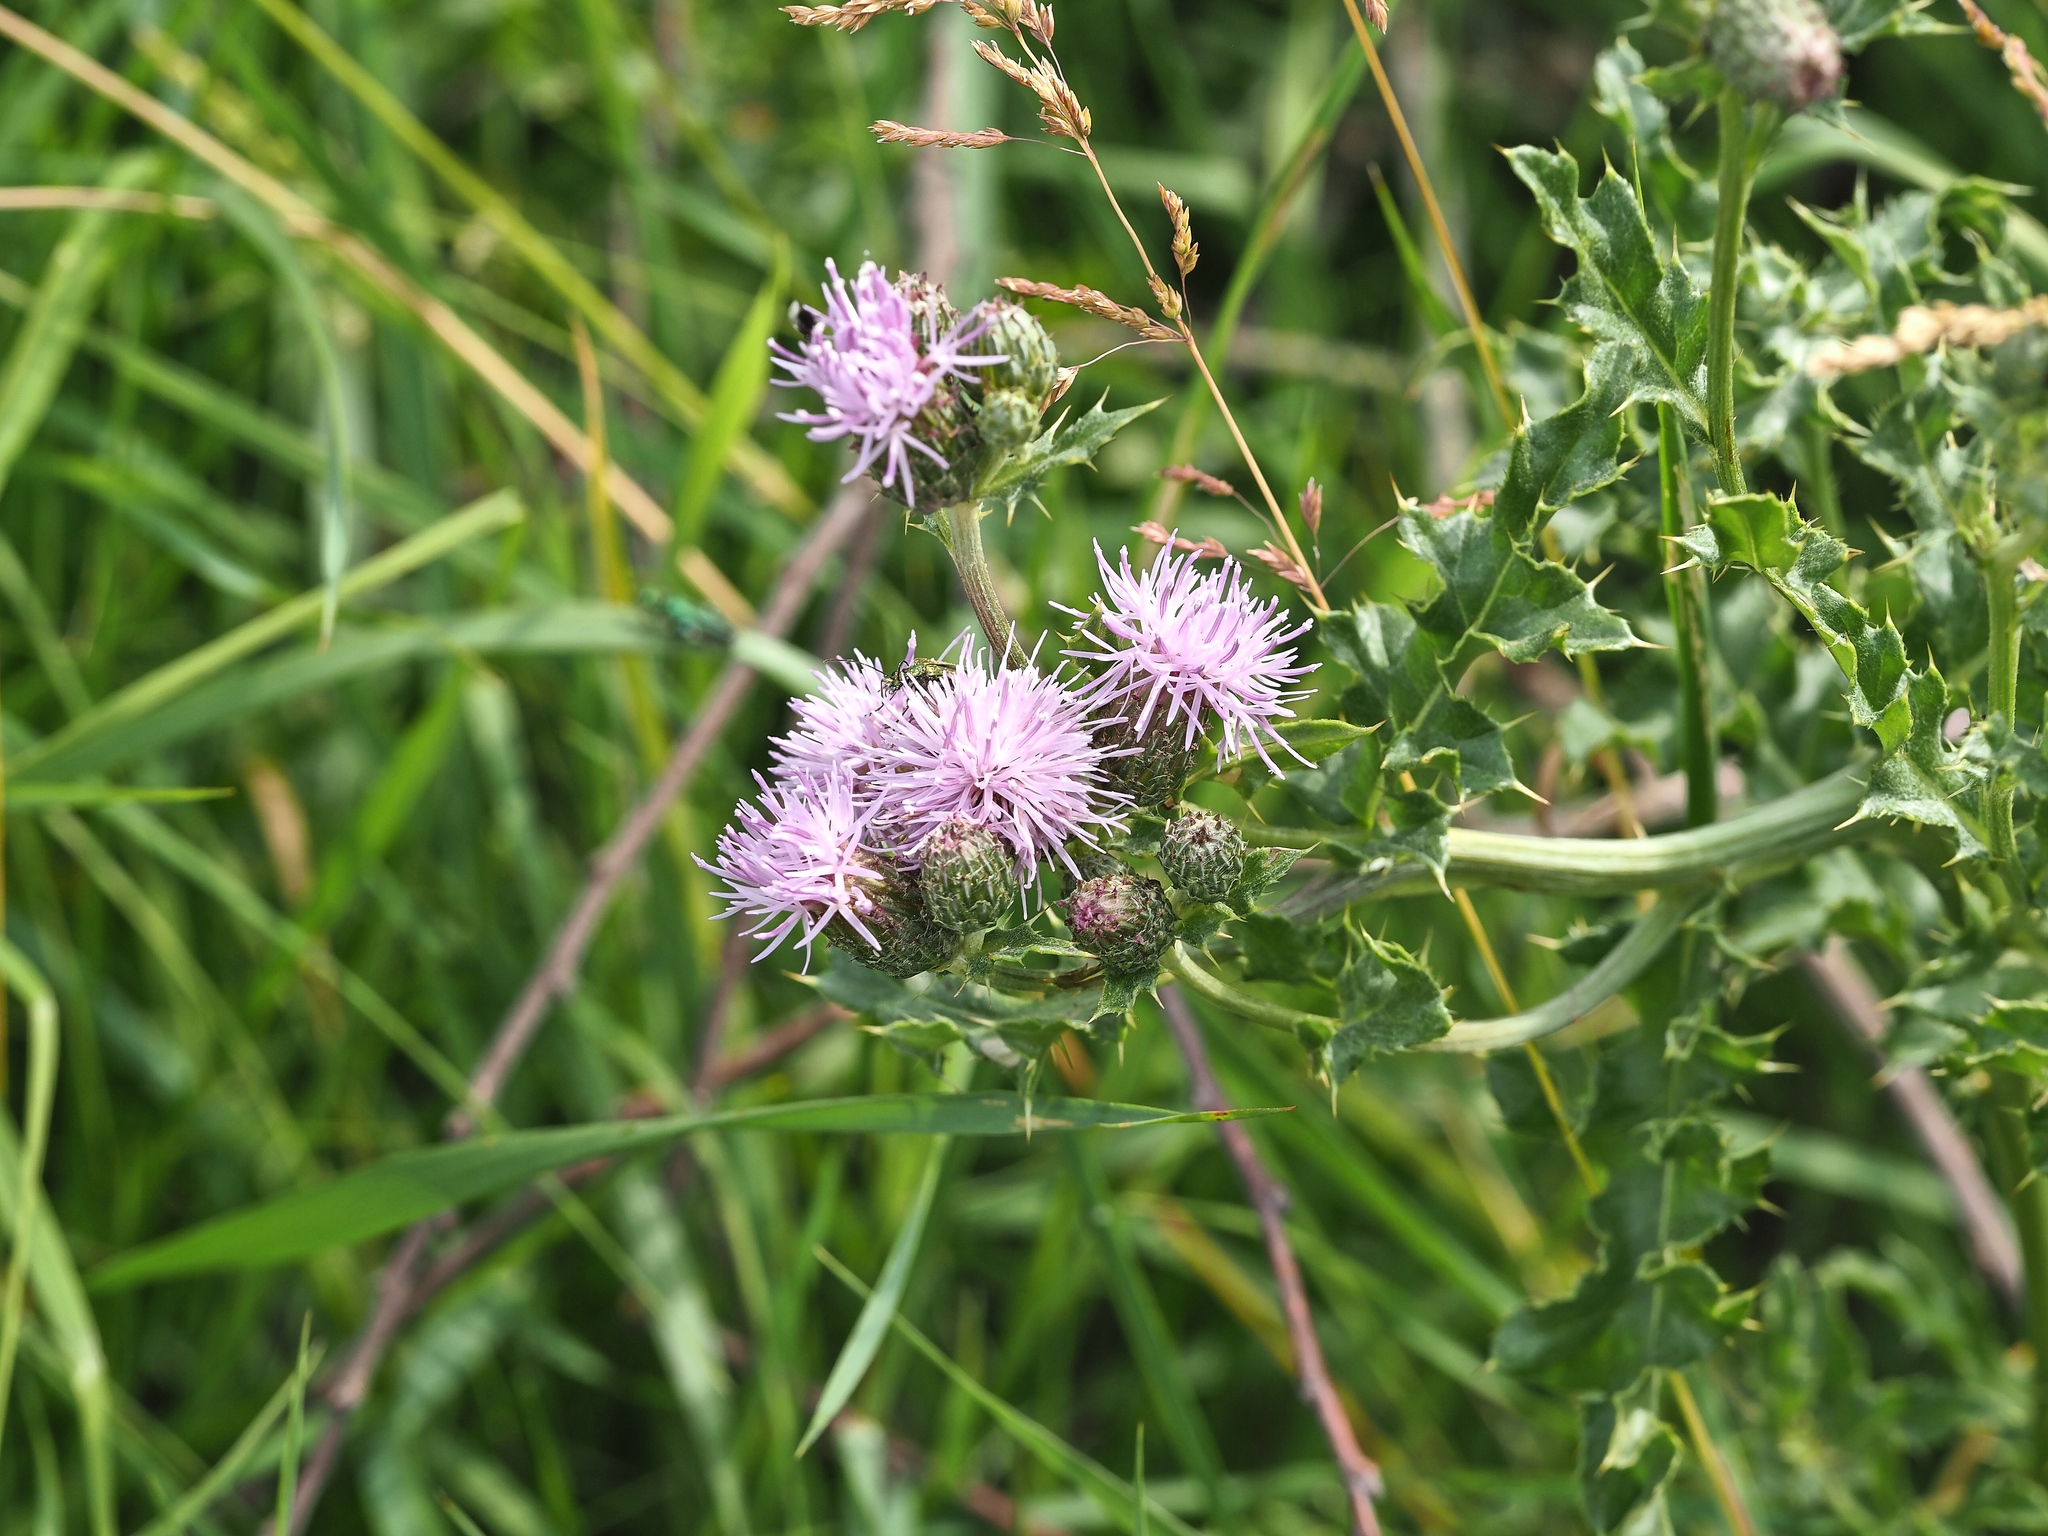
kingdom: Plantae
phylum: Tracheophyta
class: Magnoliopsida
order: Asterales
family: Asteraceae
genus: Cirsium
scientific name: Cirsium arvense
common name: Creeping thistle
